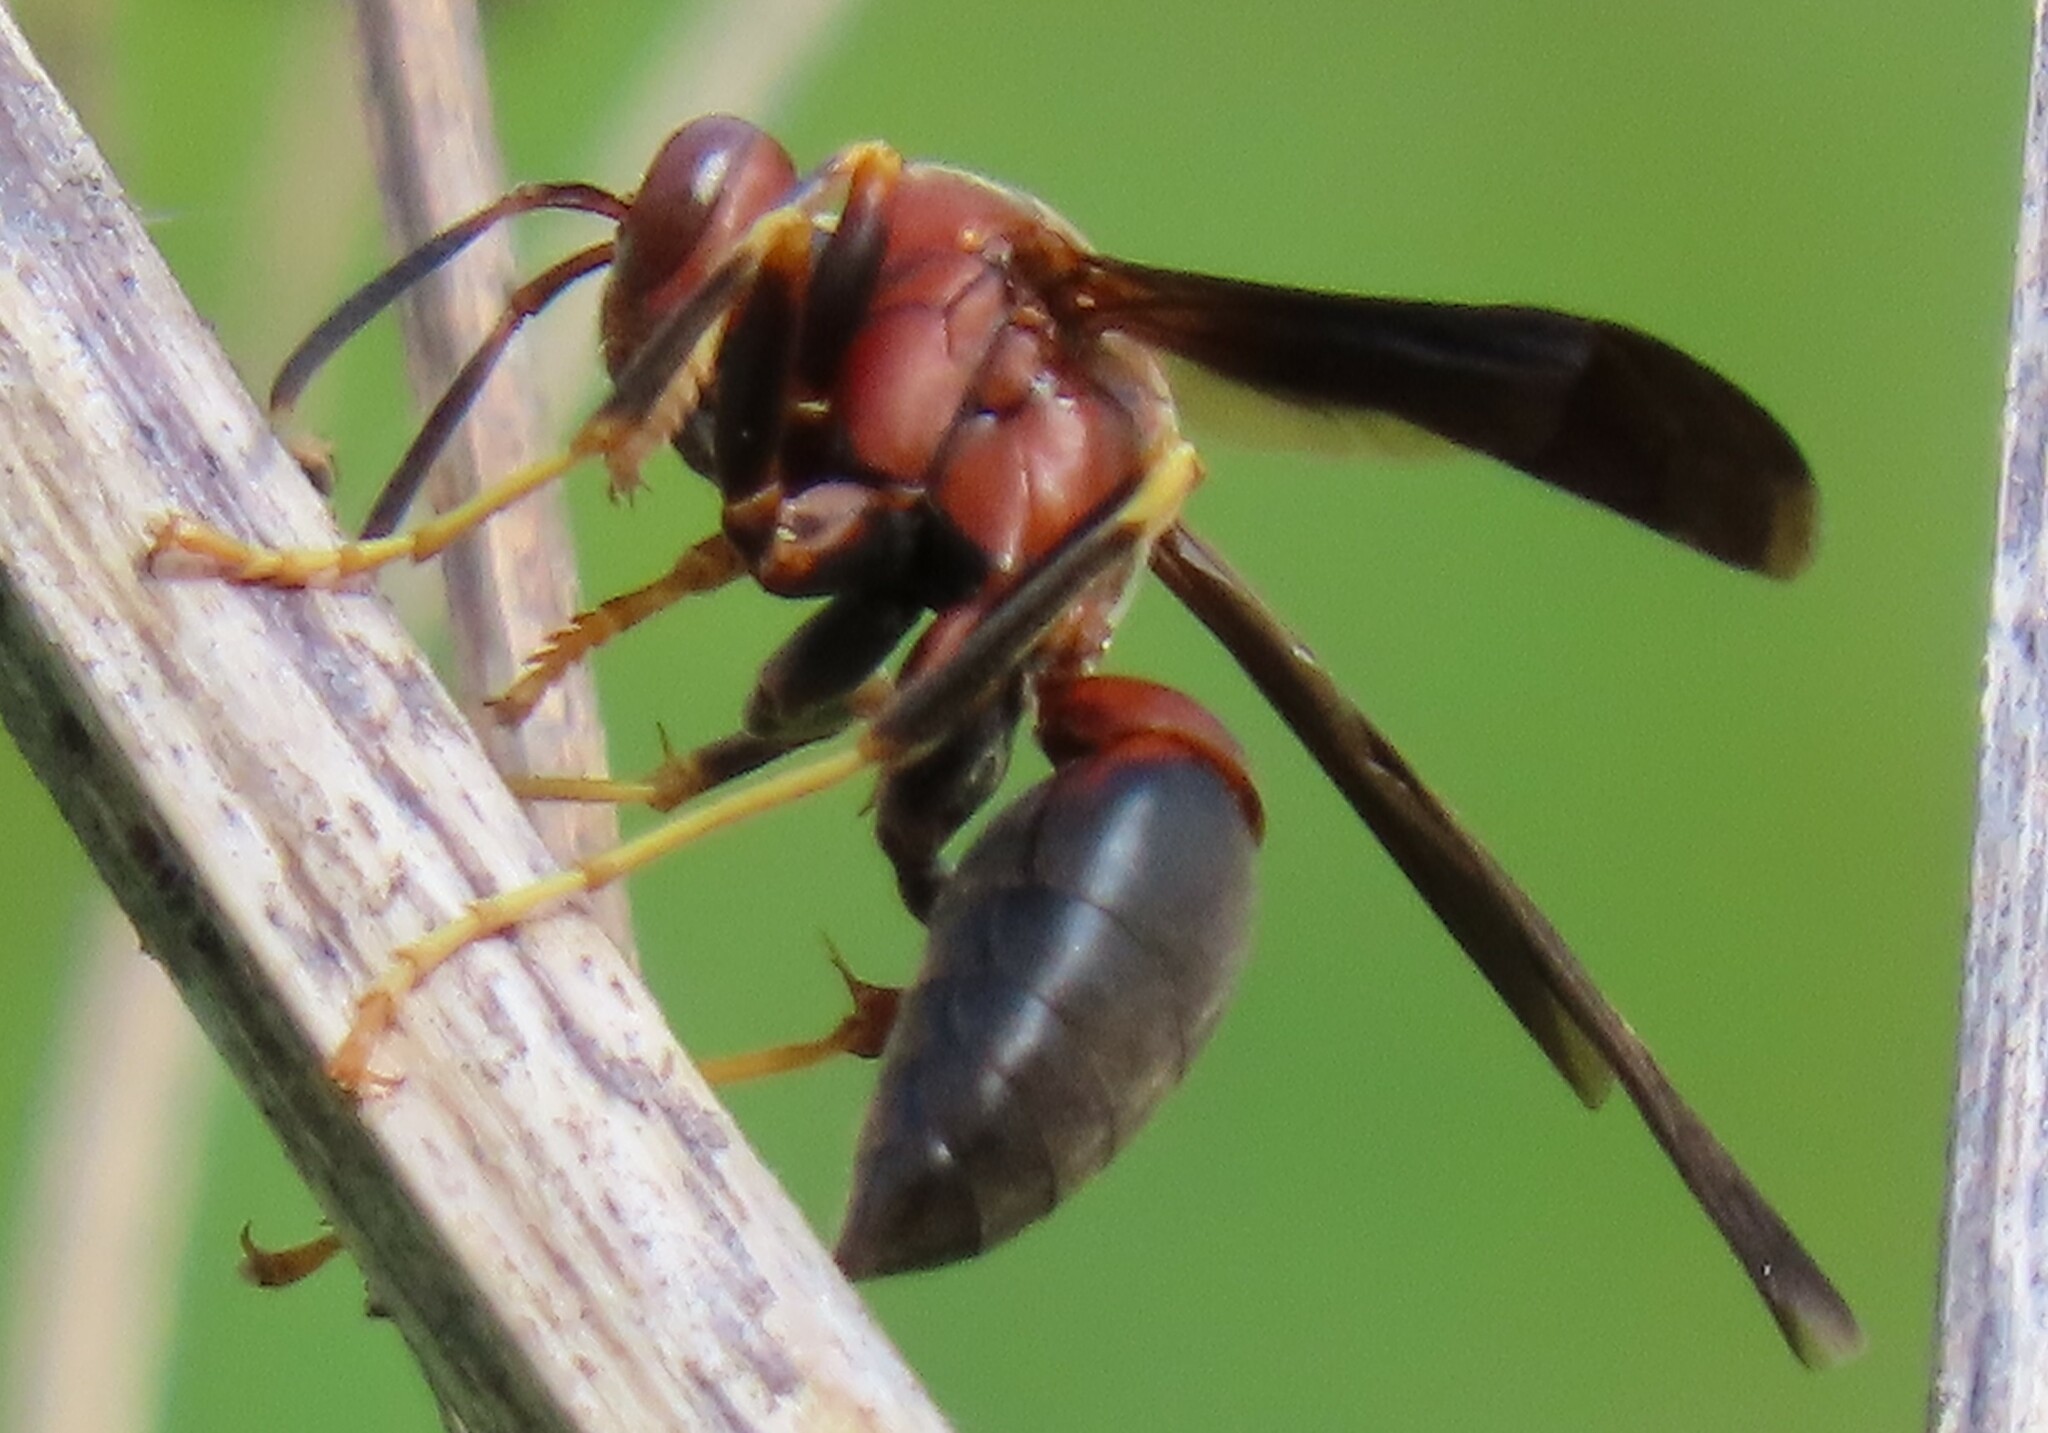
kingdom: Animalia
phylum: Arthropoda
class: Insecta
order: Hymenoptera
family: Eumenidae
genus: Polistes
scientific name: Polistes metricus
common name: Metric paper wasp
